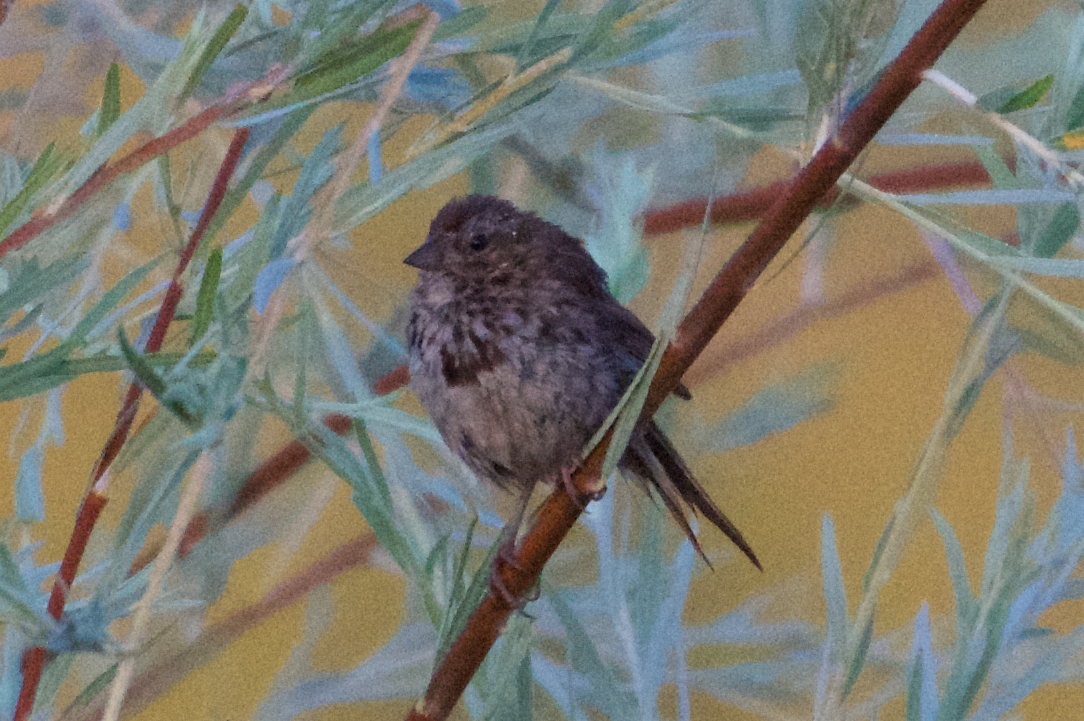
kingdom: Animalia
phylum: Chordata
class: Aves
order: Passeriformes
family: Passerellidae
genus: Melospiza
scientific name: Melospiza melodia
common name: Song sparrow
